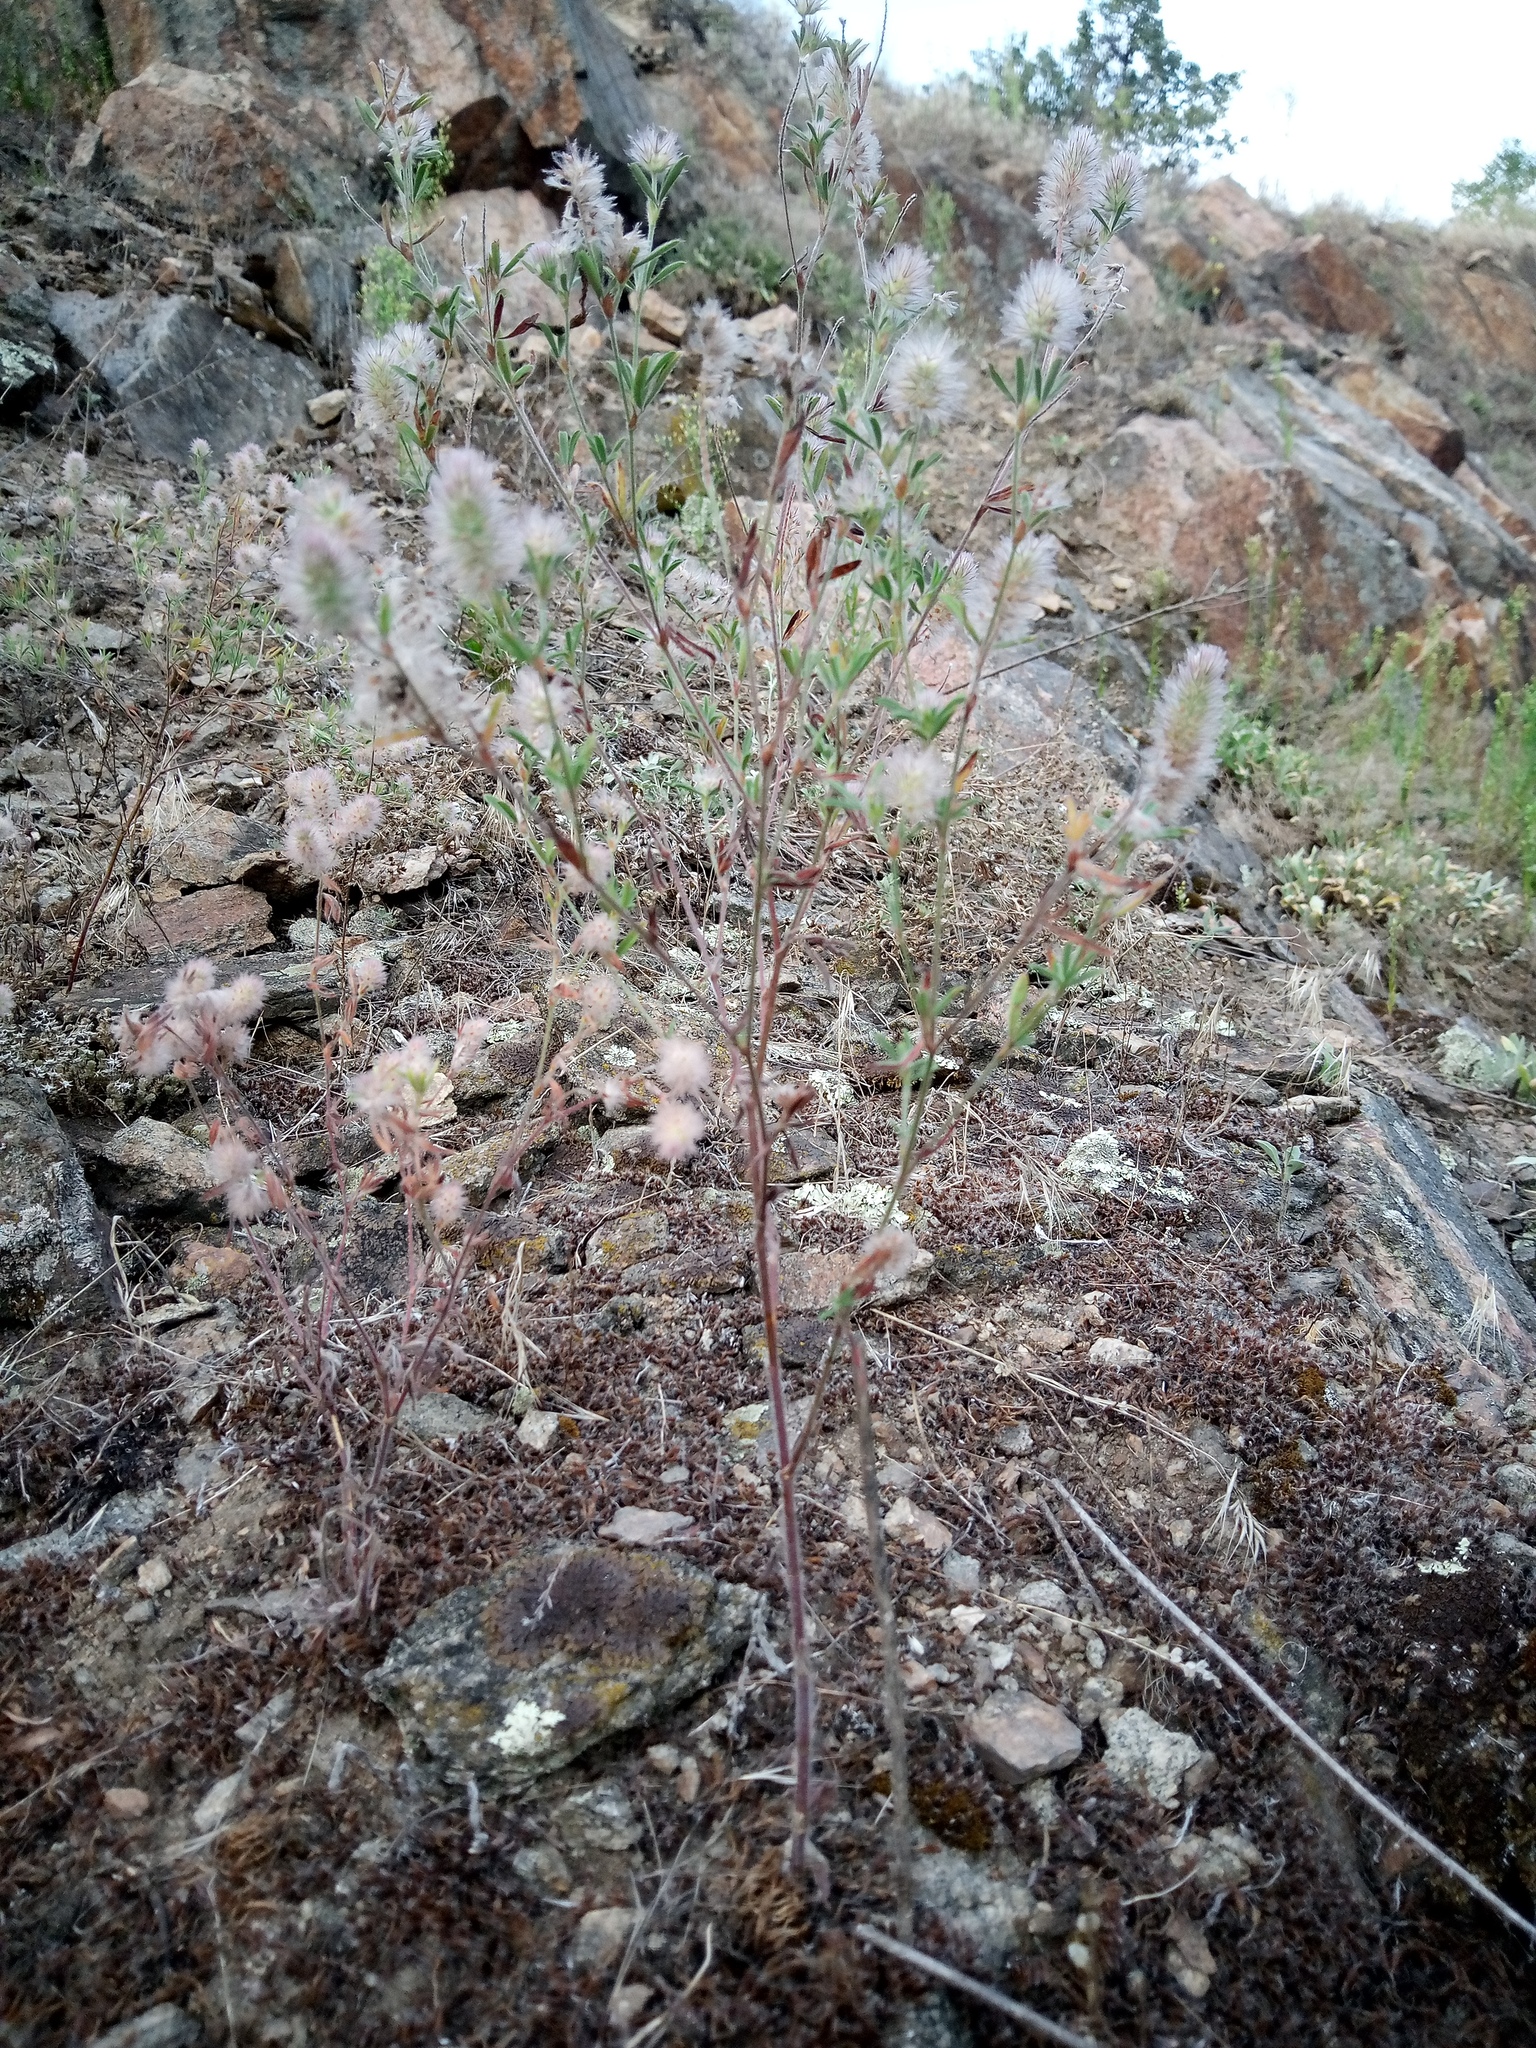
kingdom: Plantae
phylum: Tracheophyta
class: Magnoliopsida
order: Fabales
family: Fabaceae
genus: Trifolium
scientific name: Trifolium arvense
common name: Hare's-foot clover
